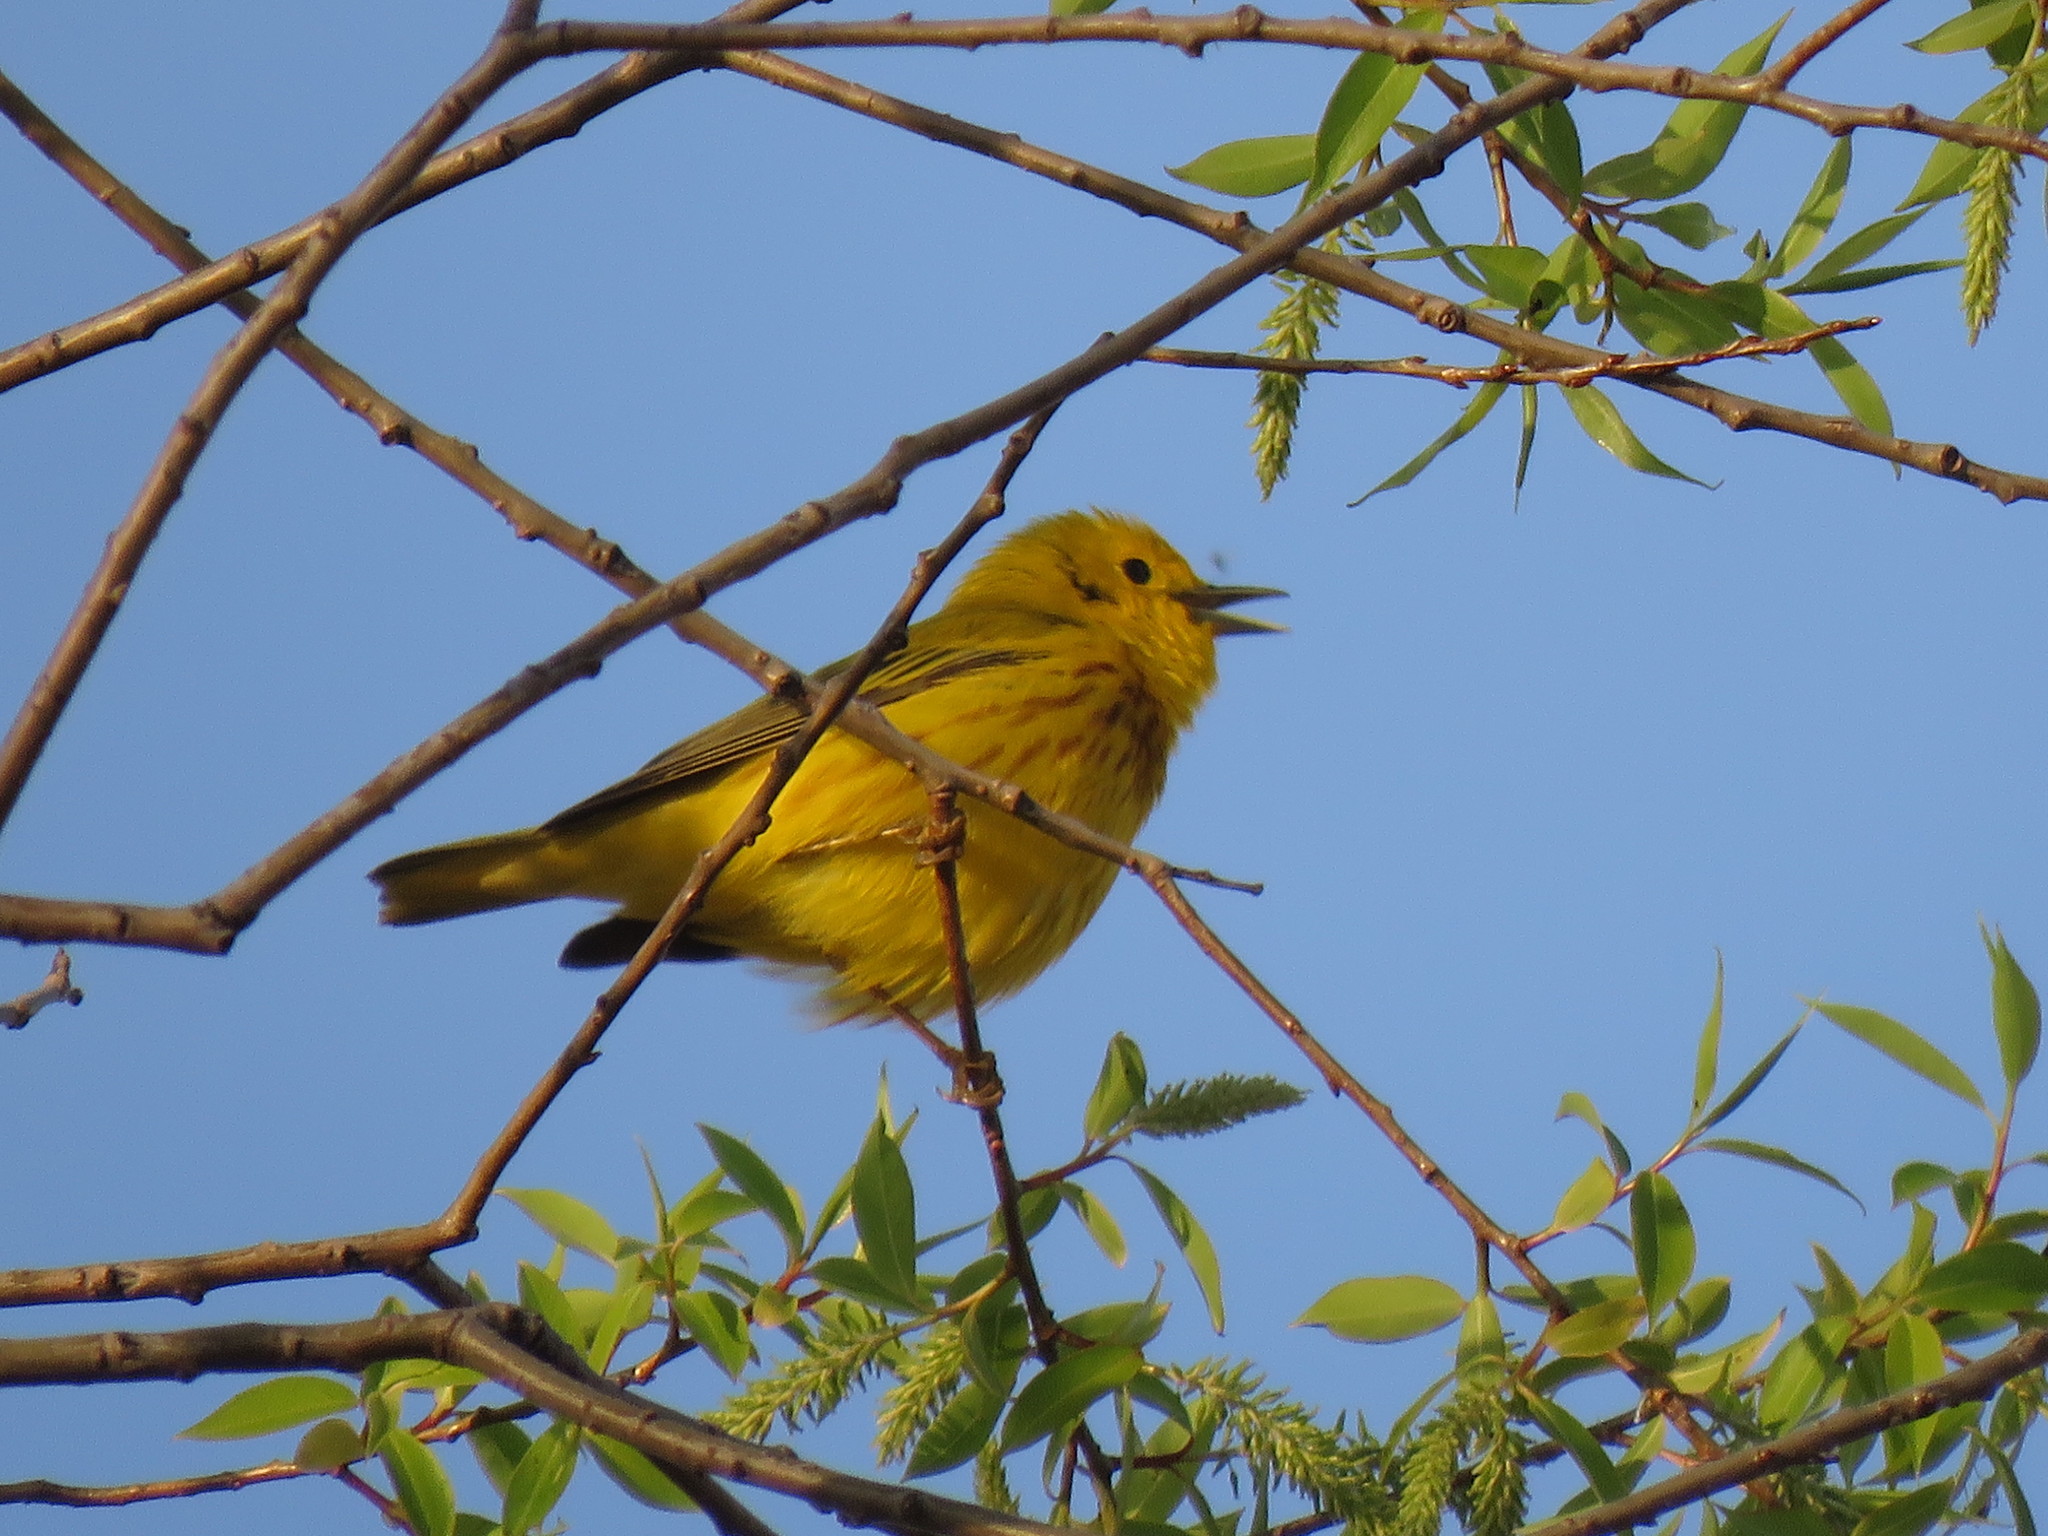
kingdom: Animalia
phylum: Chordata
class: Aves
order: Passeriformes
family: Parulidae
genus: Setophaga
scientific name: Setophaga petechia
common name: Yellow warbler
